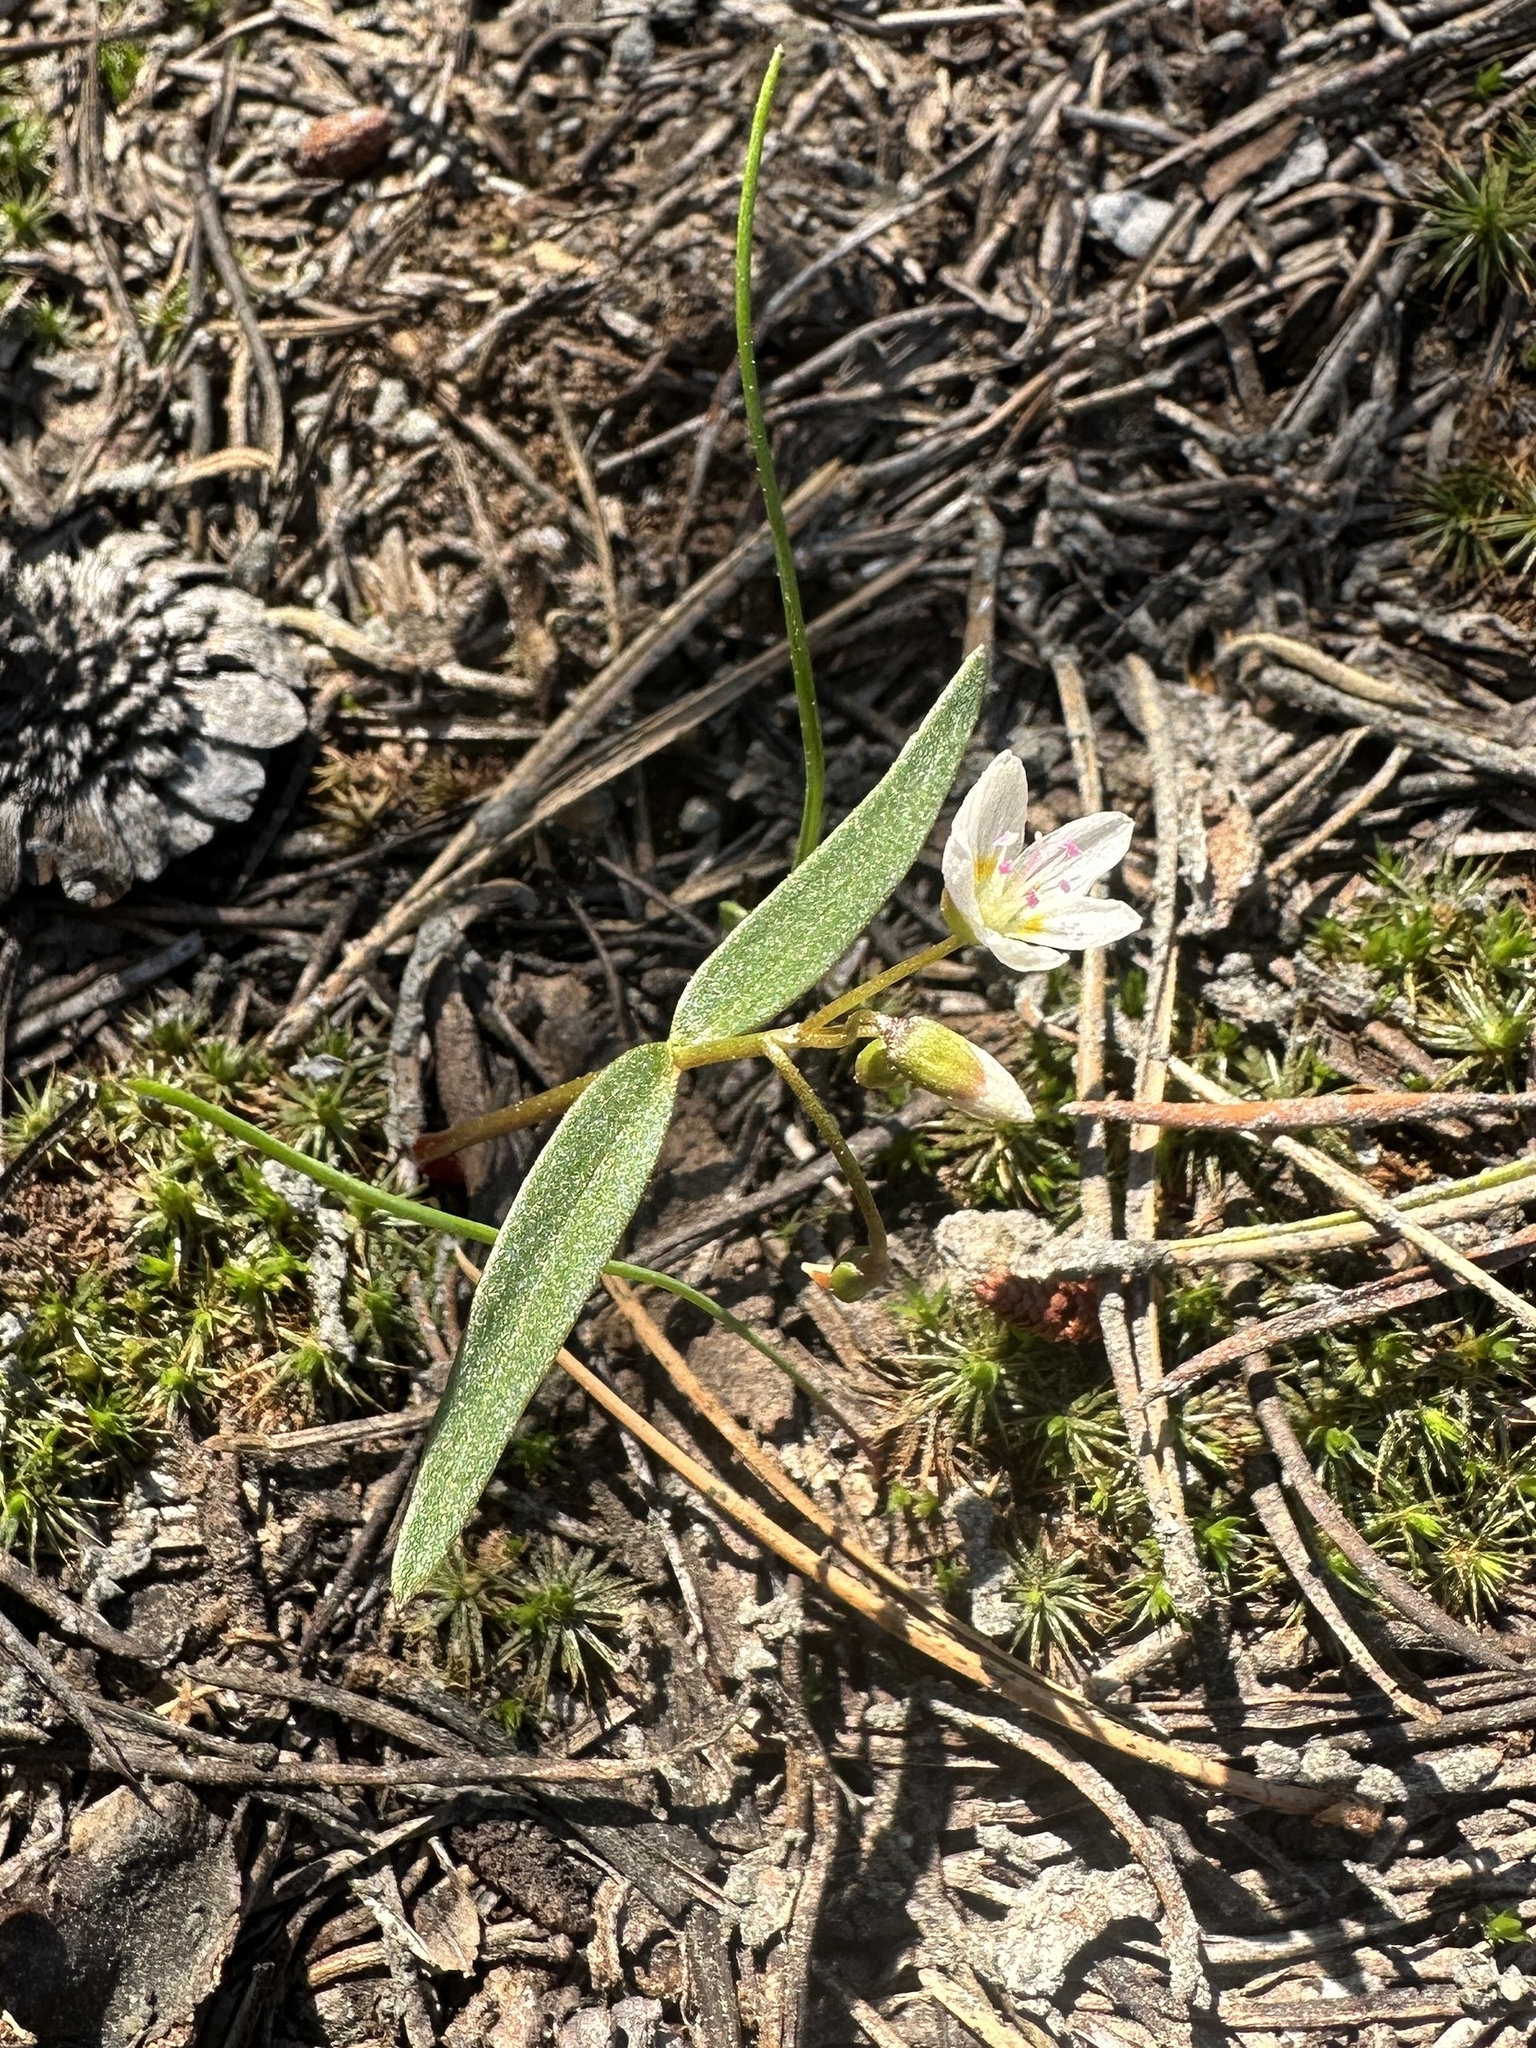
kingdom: Plantae
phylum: Tracheophyta
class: Magnoliopsida
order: Caryophyllales
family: Montiaceae
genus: Claytonia
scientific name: Claytonia lanceolata
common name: Western spring-beauty
